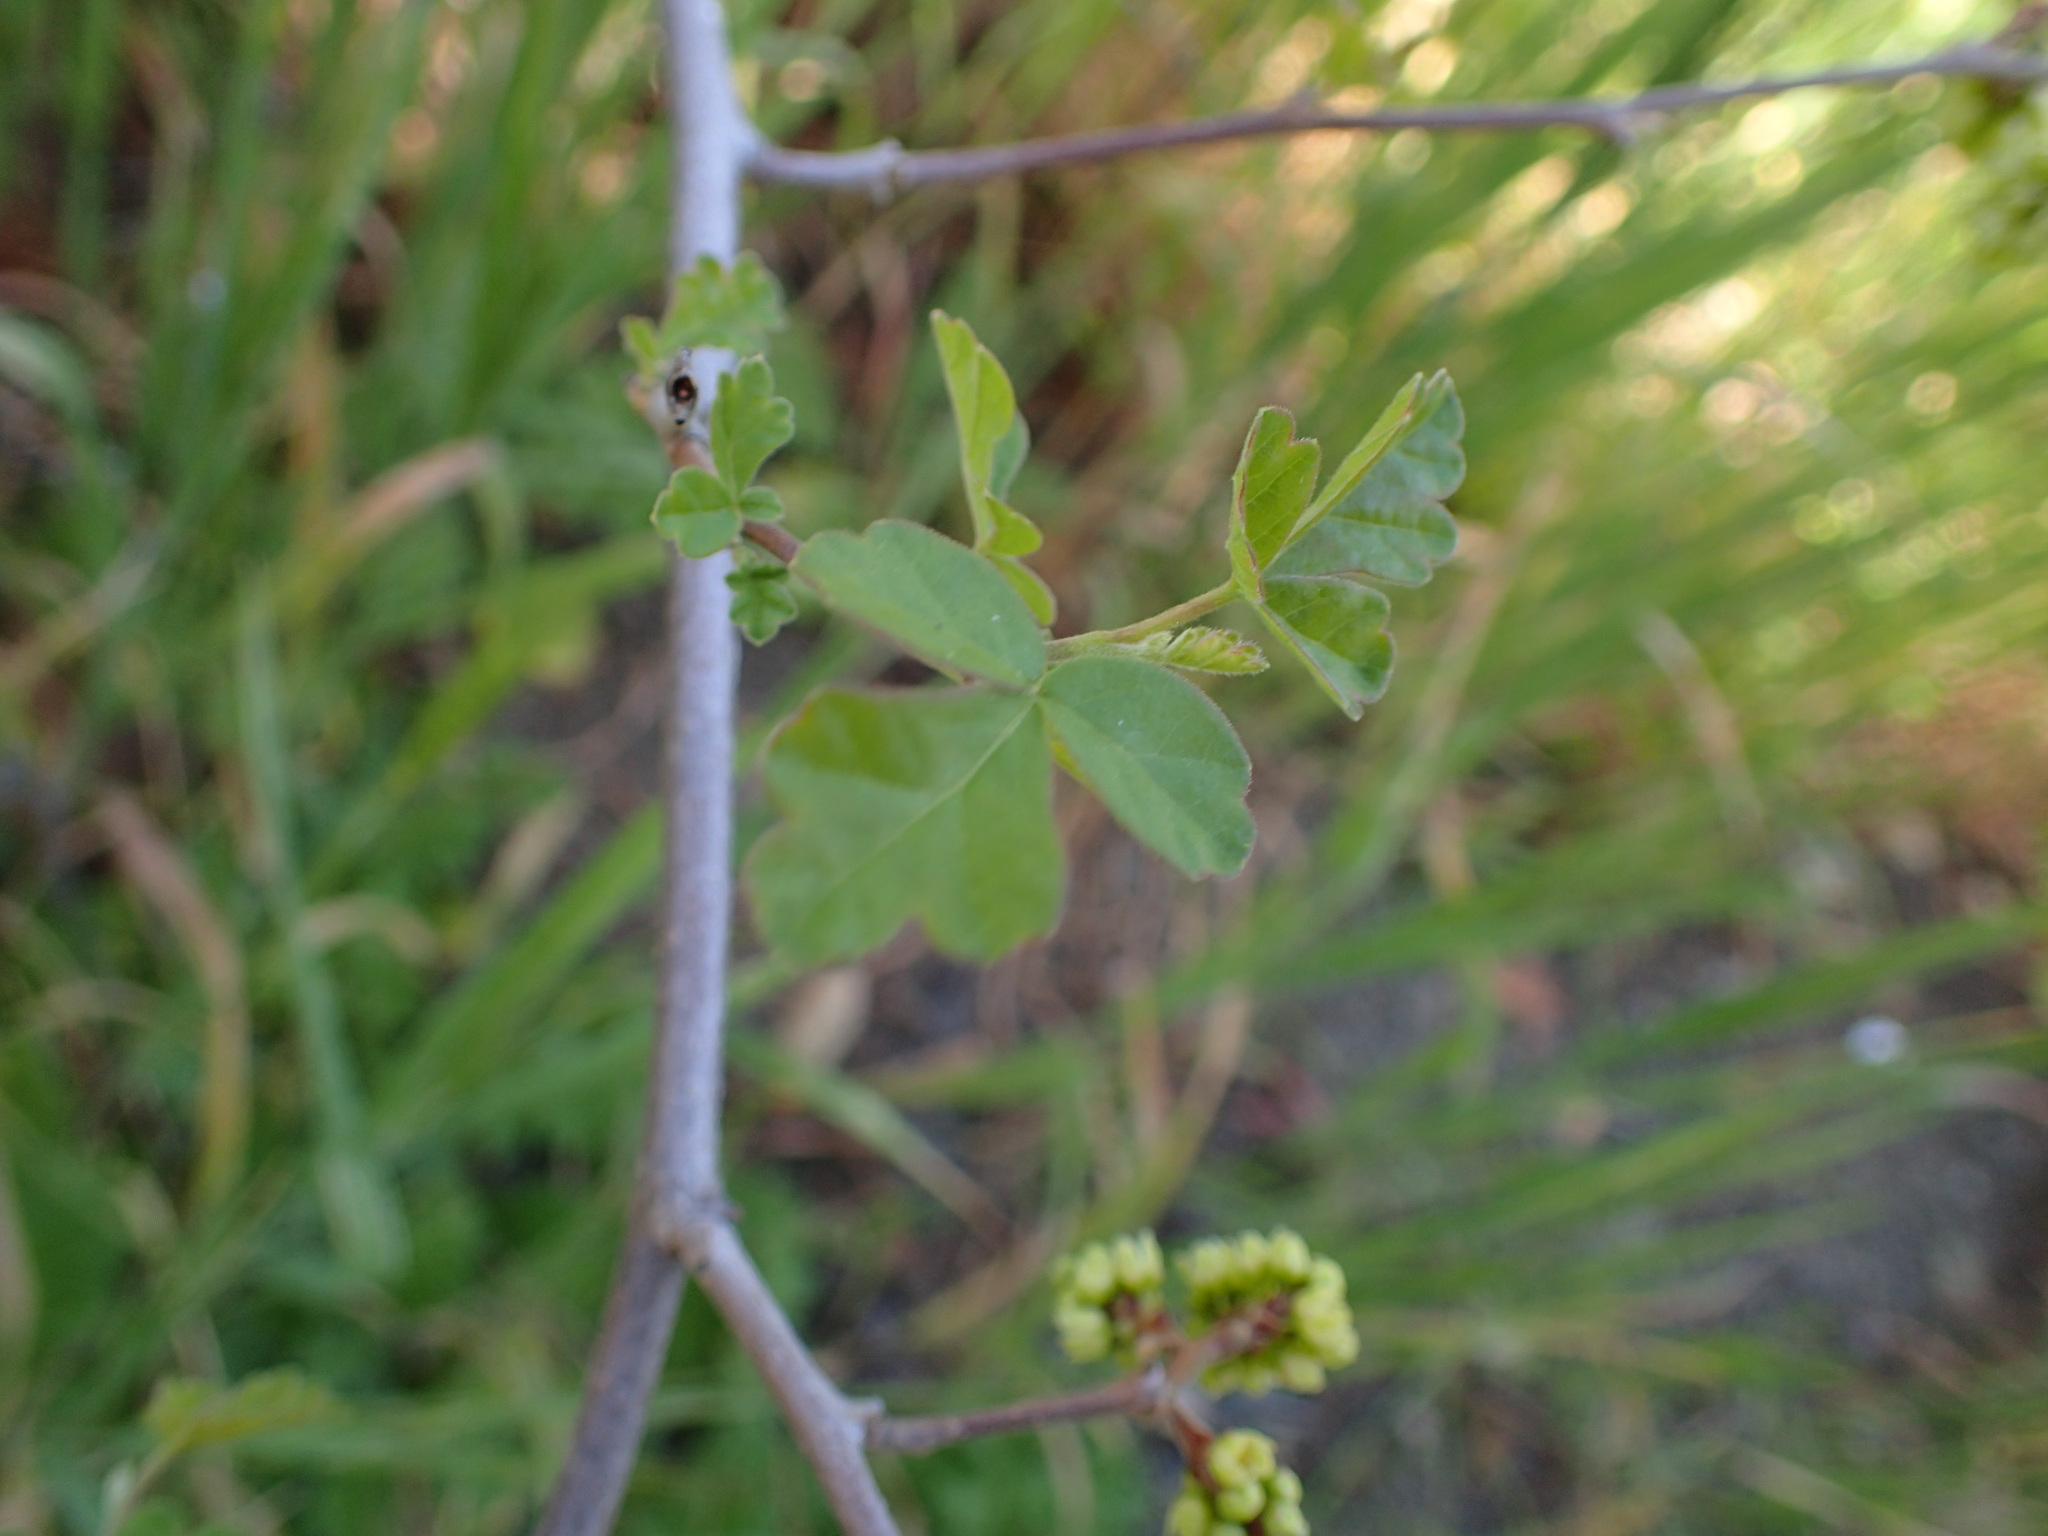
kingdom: Plantae
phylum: Tracheophyta
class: Magnoliopsida
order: Sapindales
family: Anacardiaceae
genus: Rhus
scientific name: Rhus aromatica
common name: Aromatic sumac
